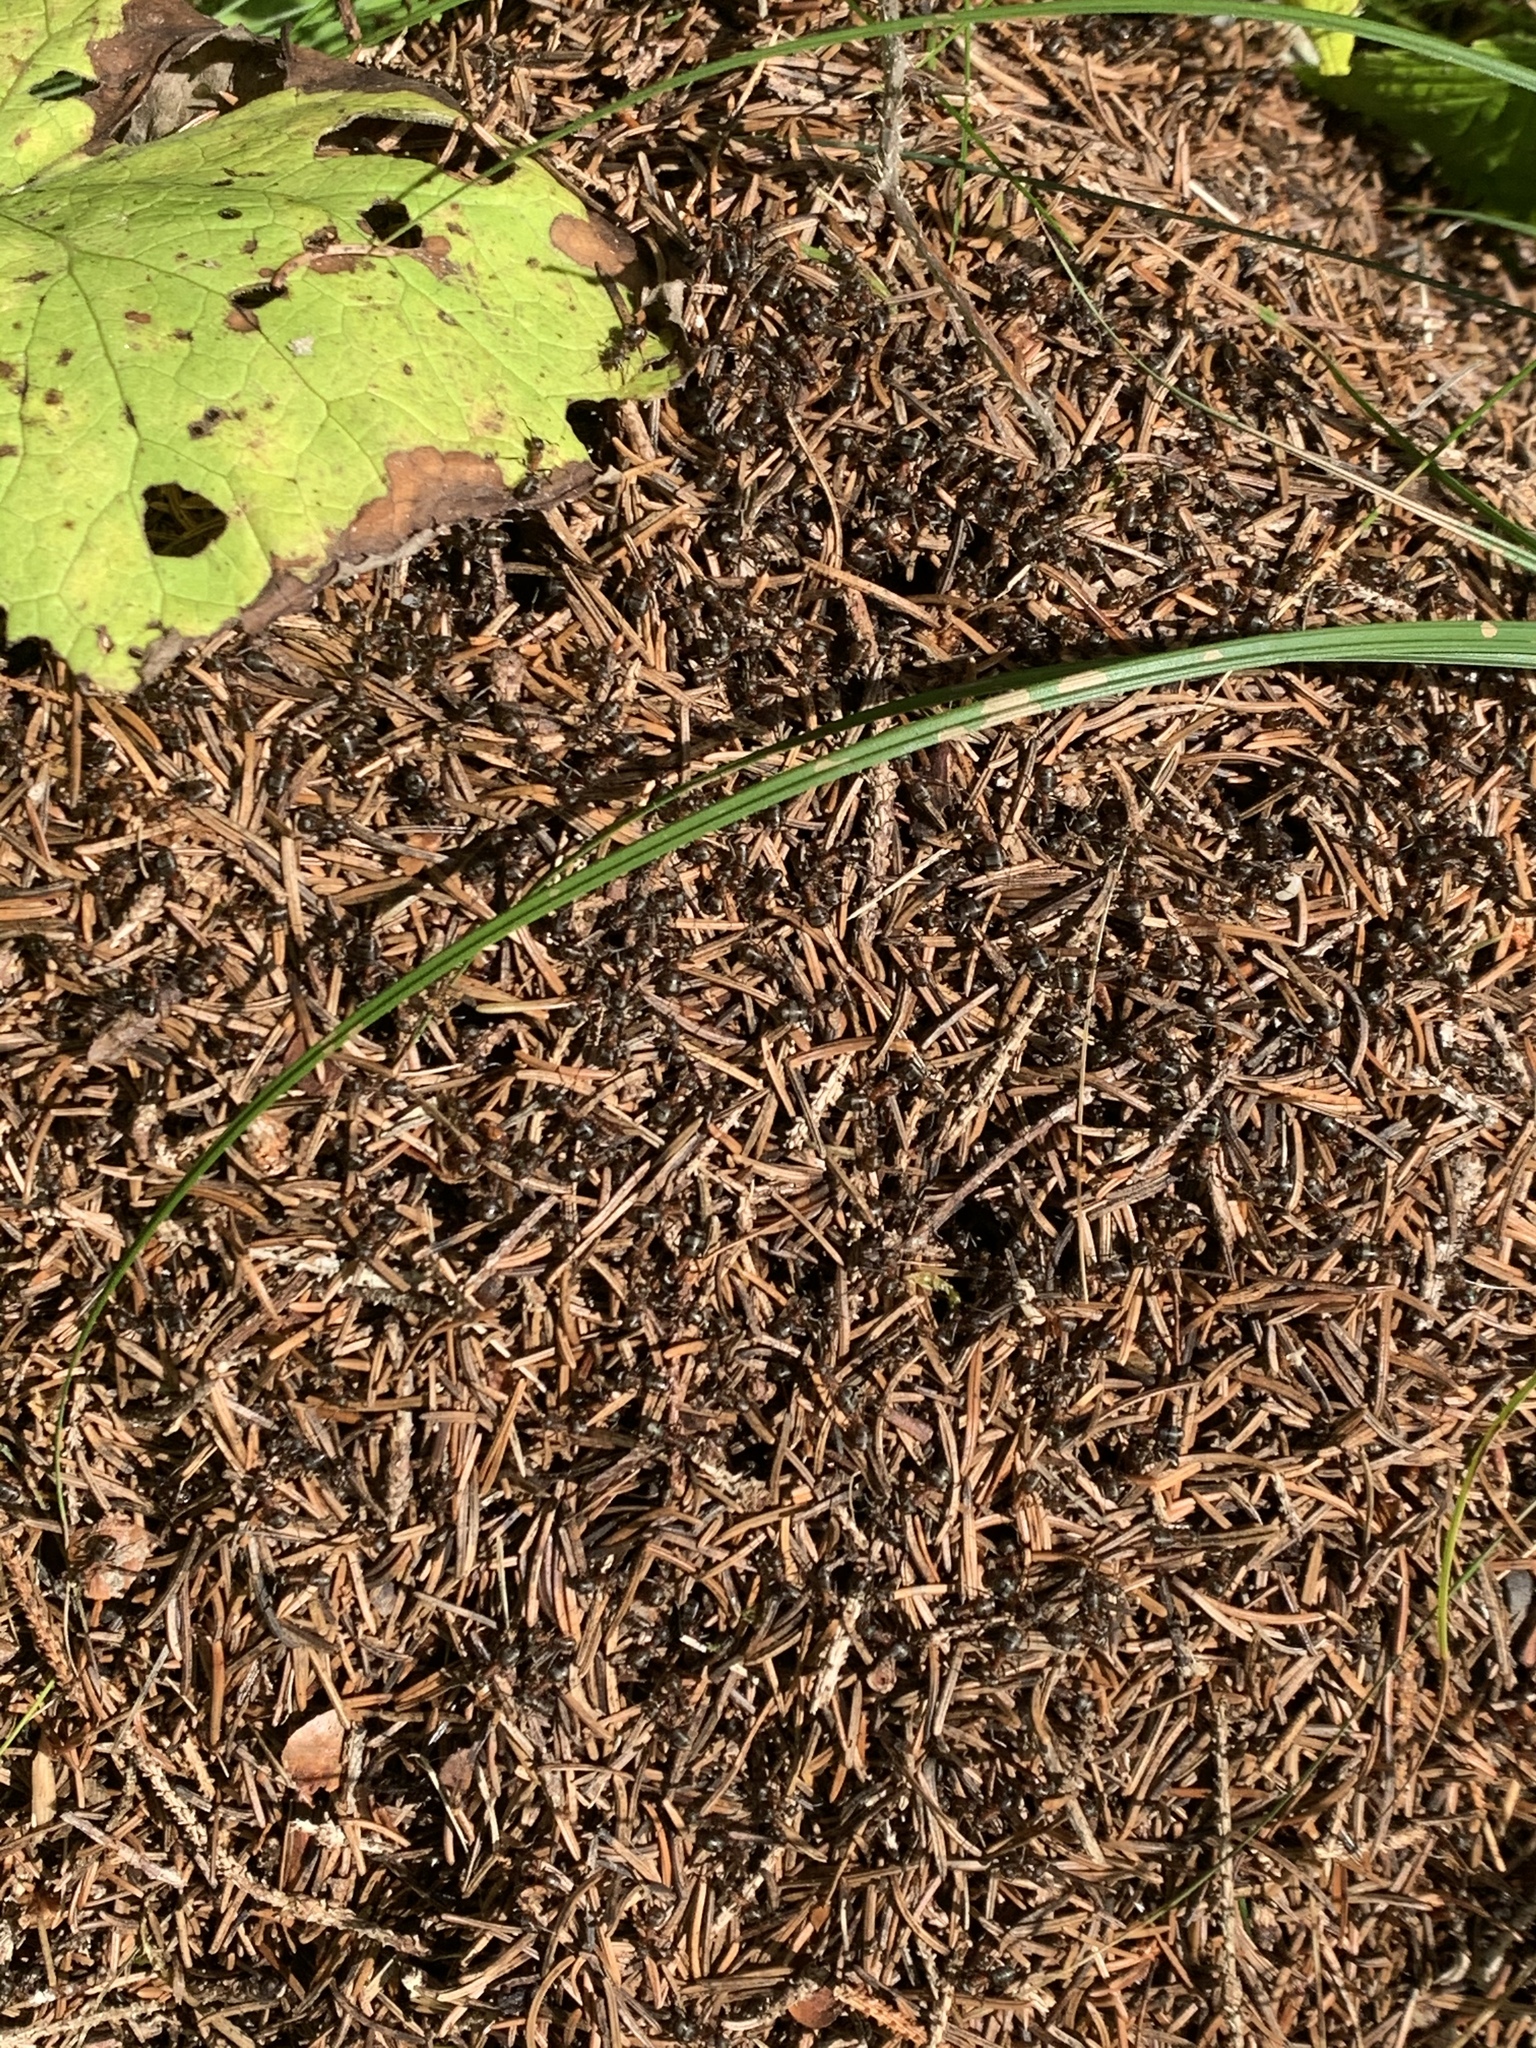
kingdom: Animalia
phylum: Arthropoda
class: Insecta
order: Hymenoptera
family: Formicidae
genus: Formica
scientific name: Formica
